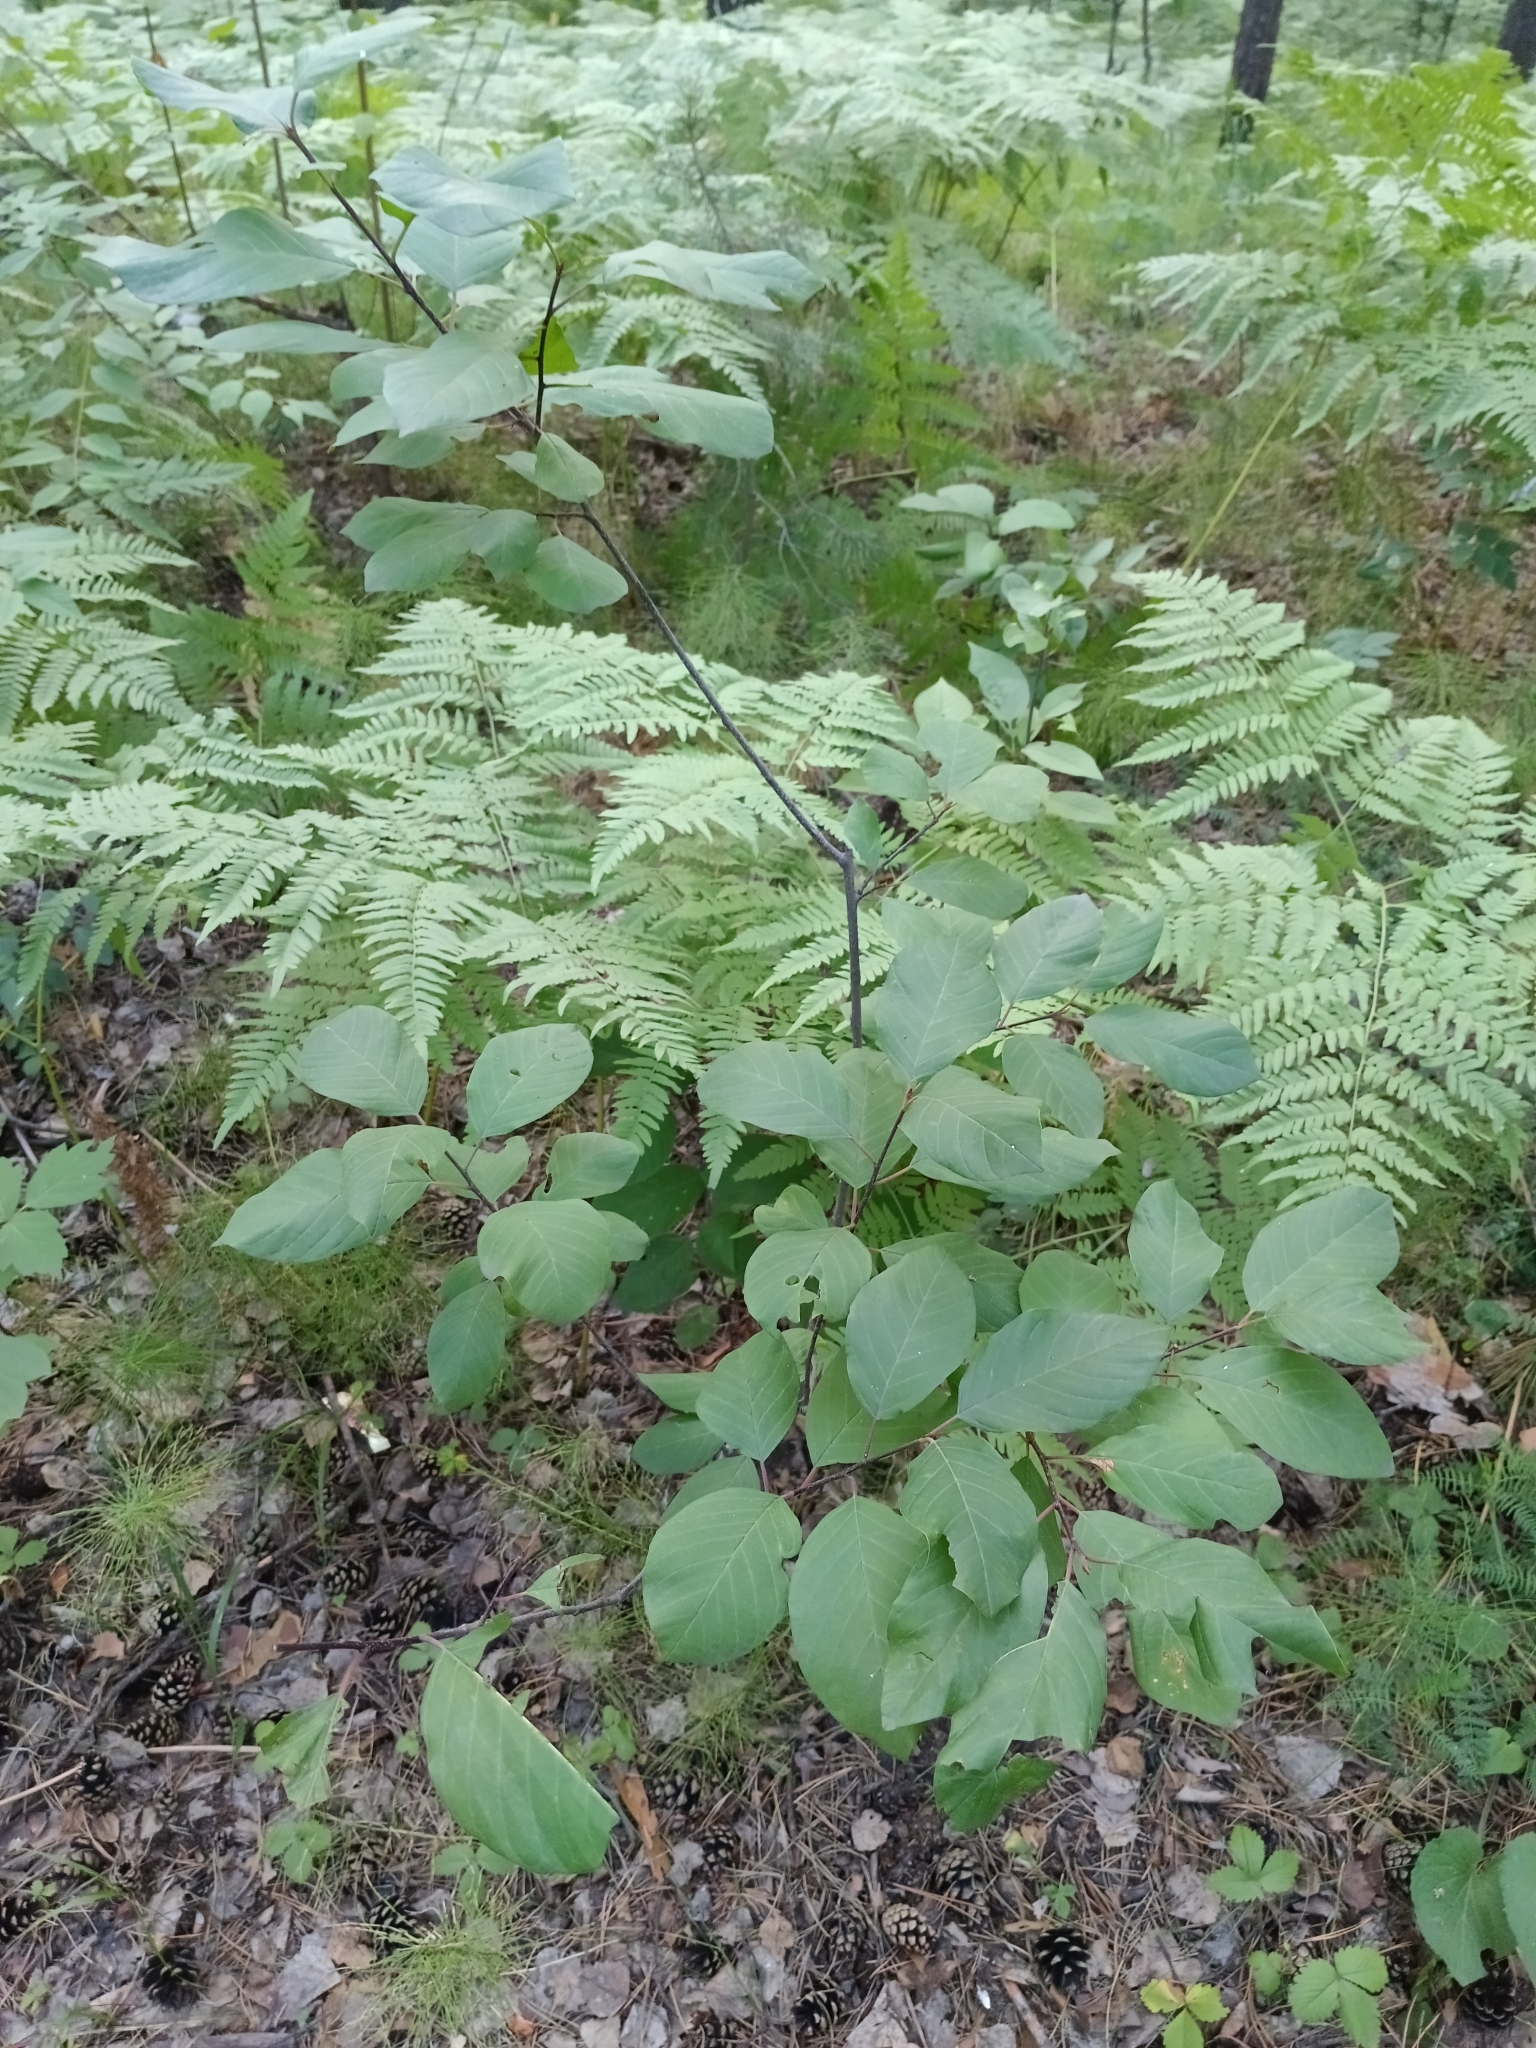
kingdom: Plantae
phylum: Tracheophyta
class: Magnoliopsida
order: Rosales
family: Rhamnaceae
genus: Frangula
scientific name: Frangula alnus
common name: Alder buckthorn
